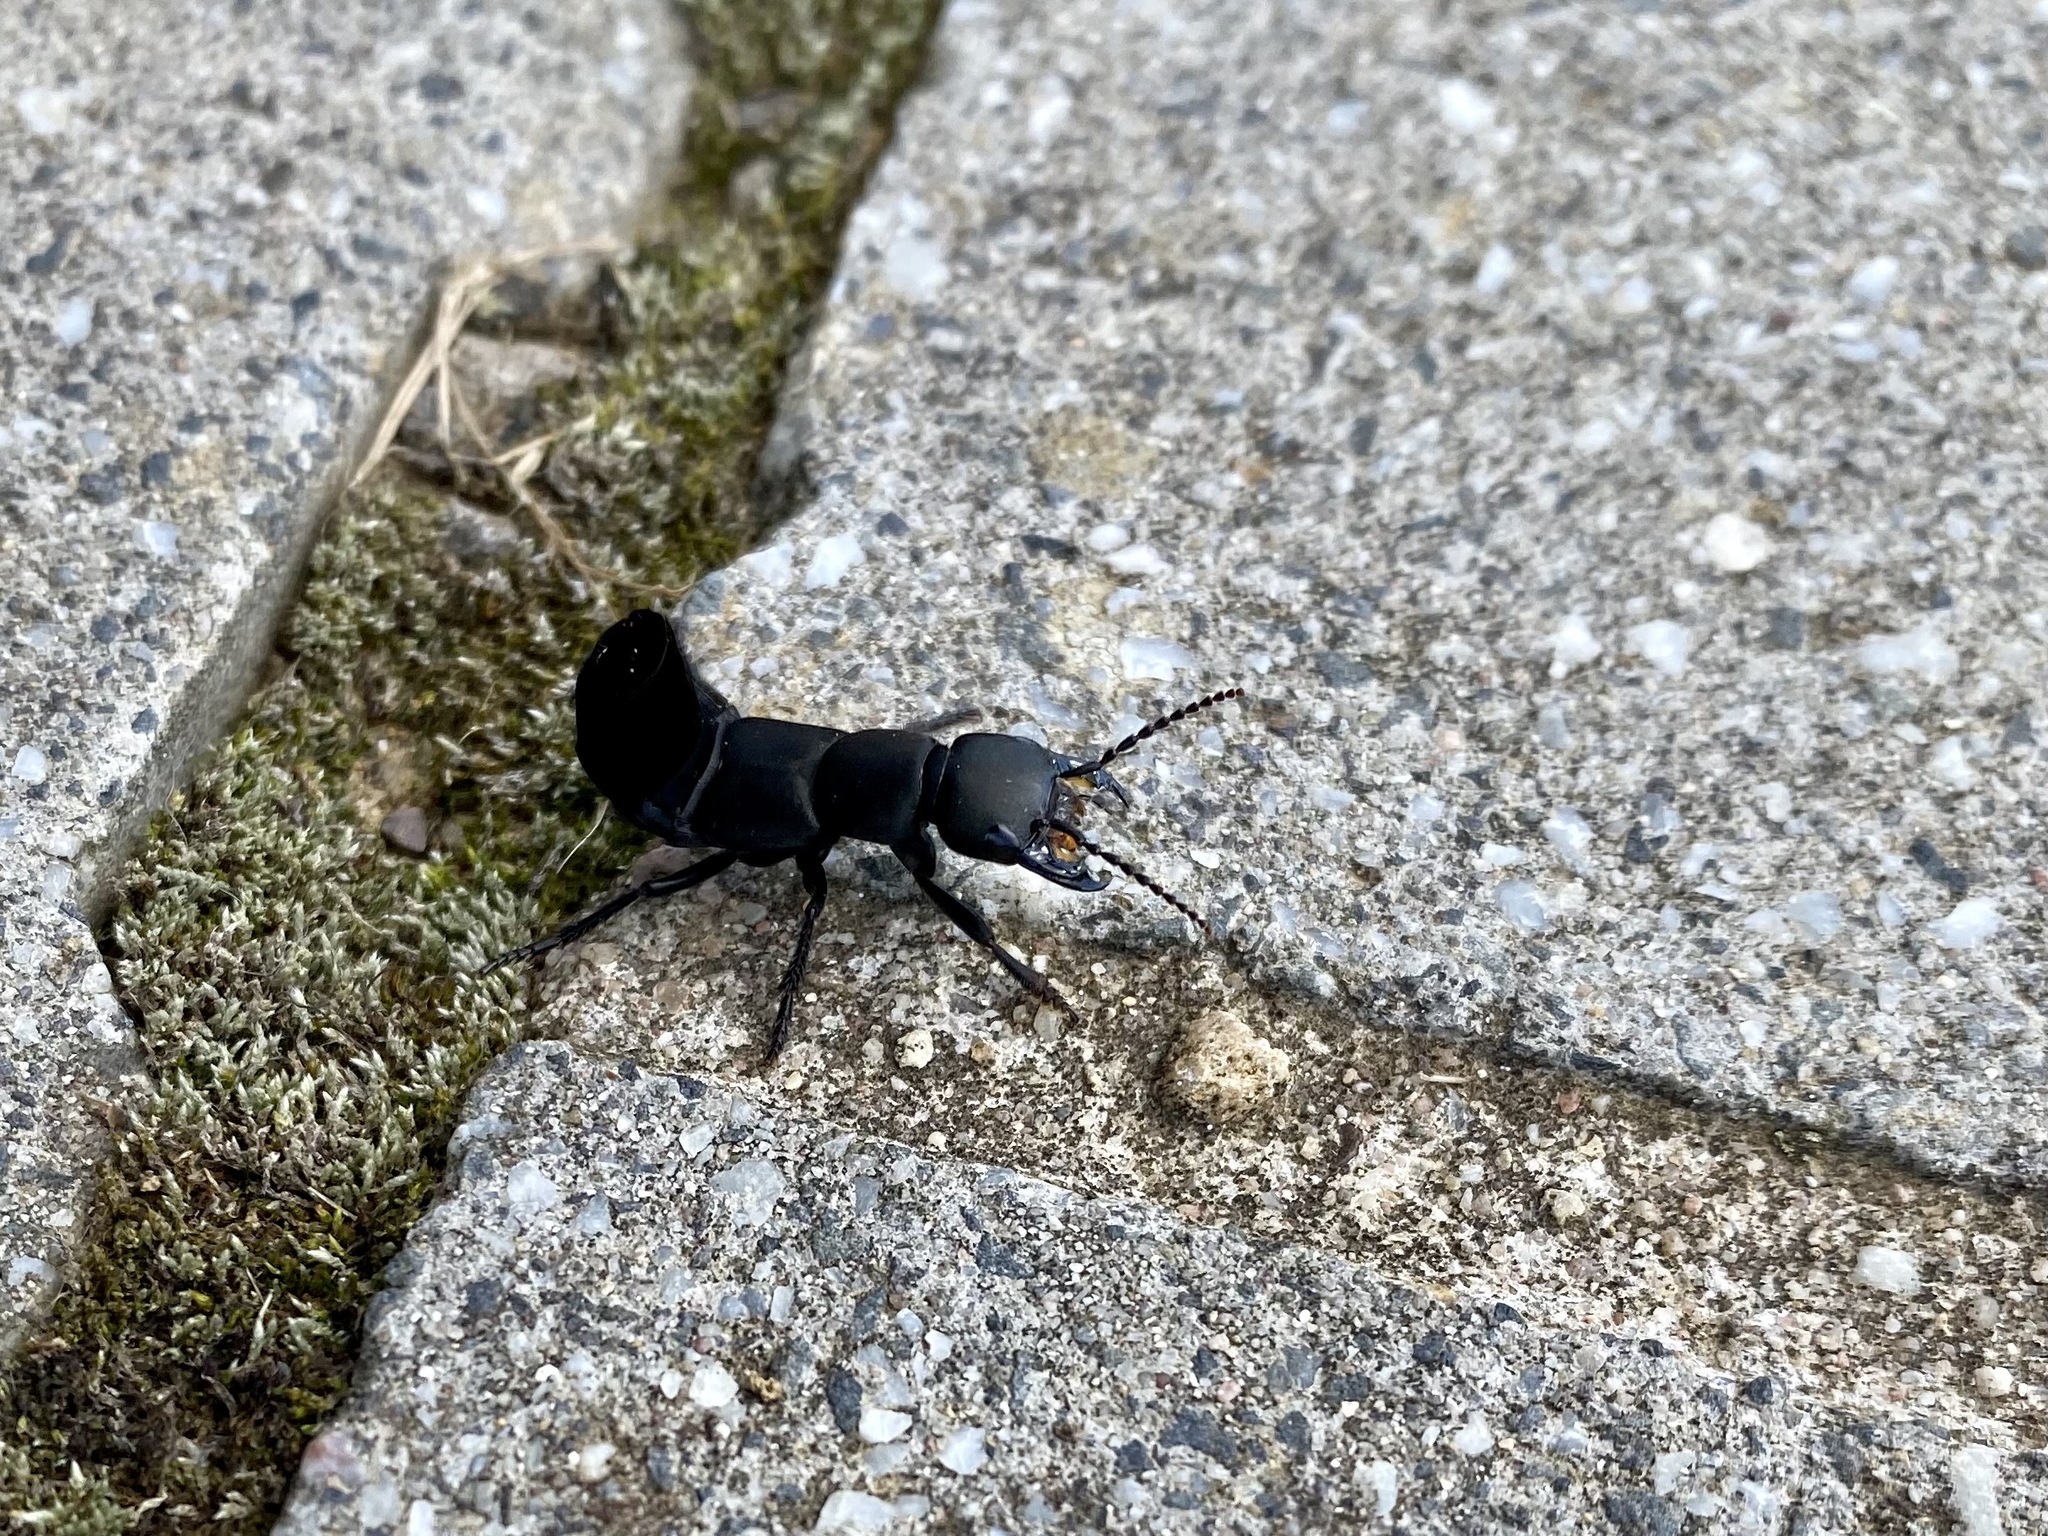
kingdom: Animalia
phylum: Arthropoda
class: Insecta
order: Coleoptera
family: Staphylinidae
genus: Ocypus
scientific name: Ocypus olens
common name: Devil's coach-horse
